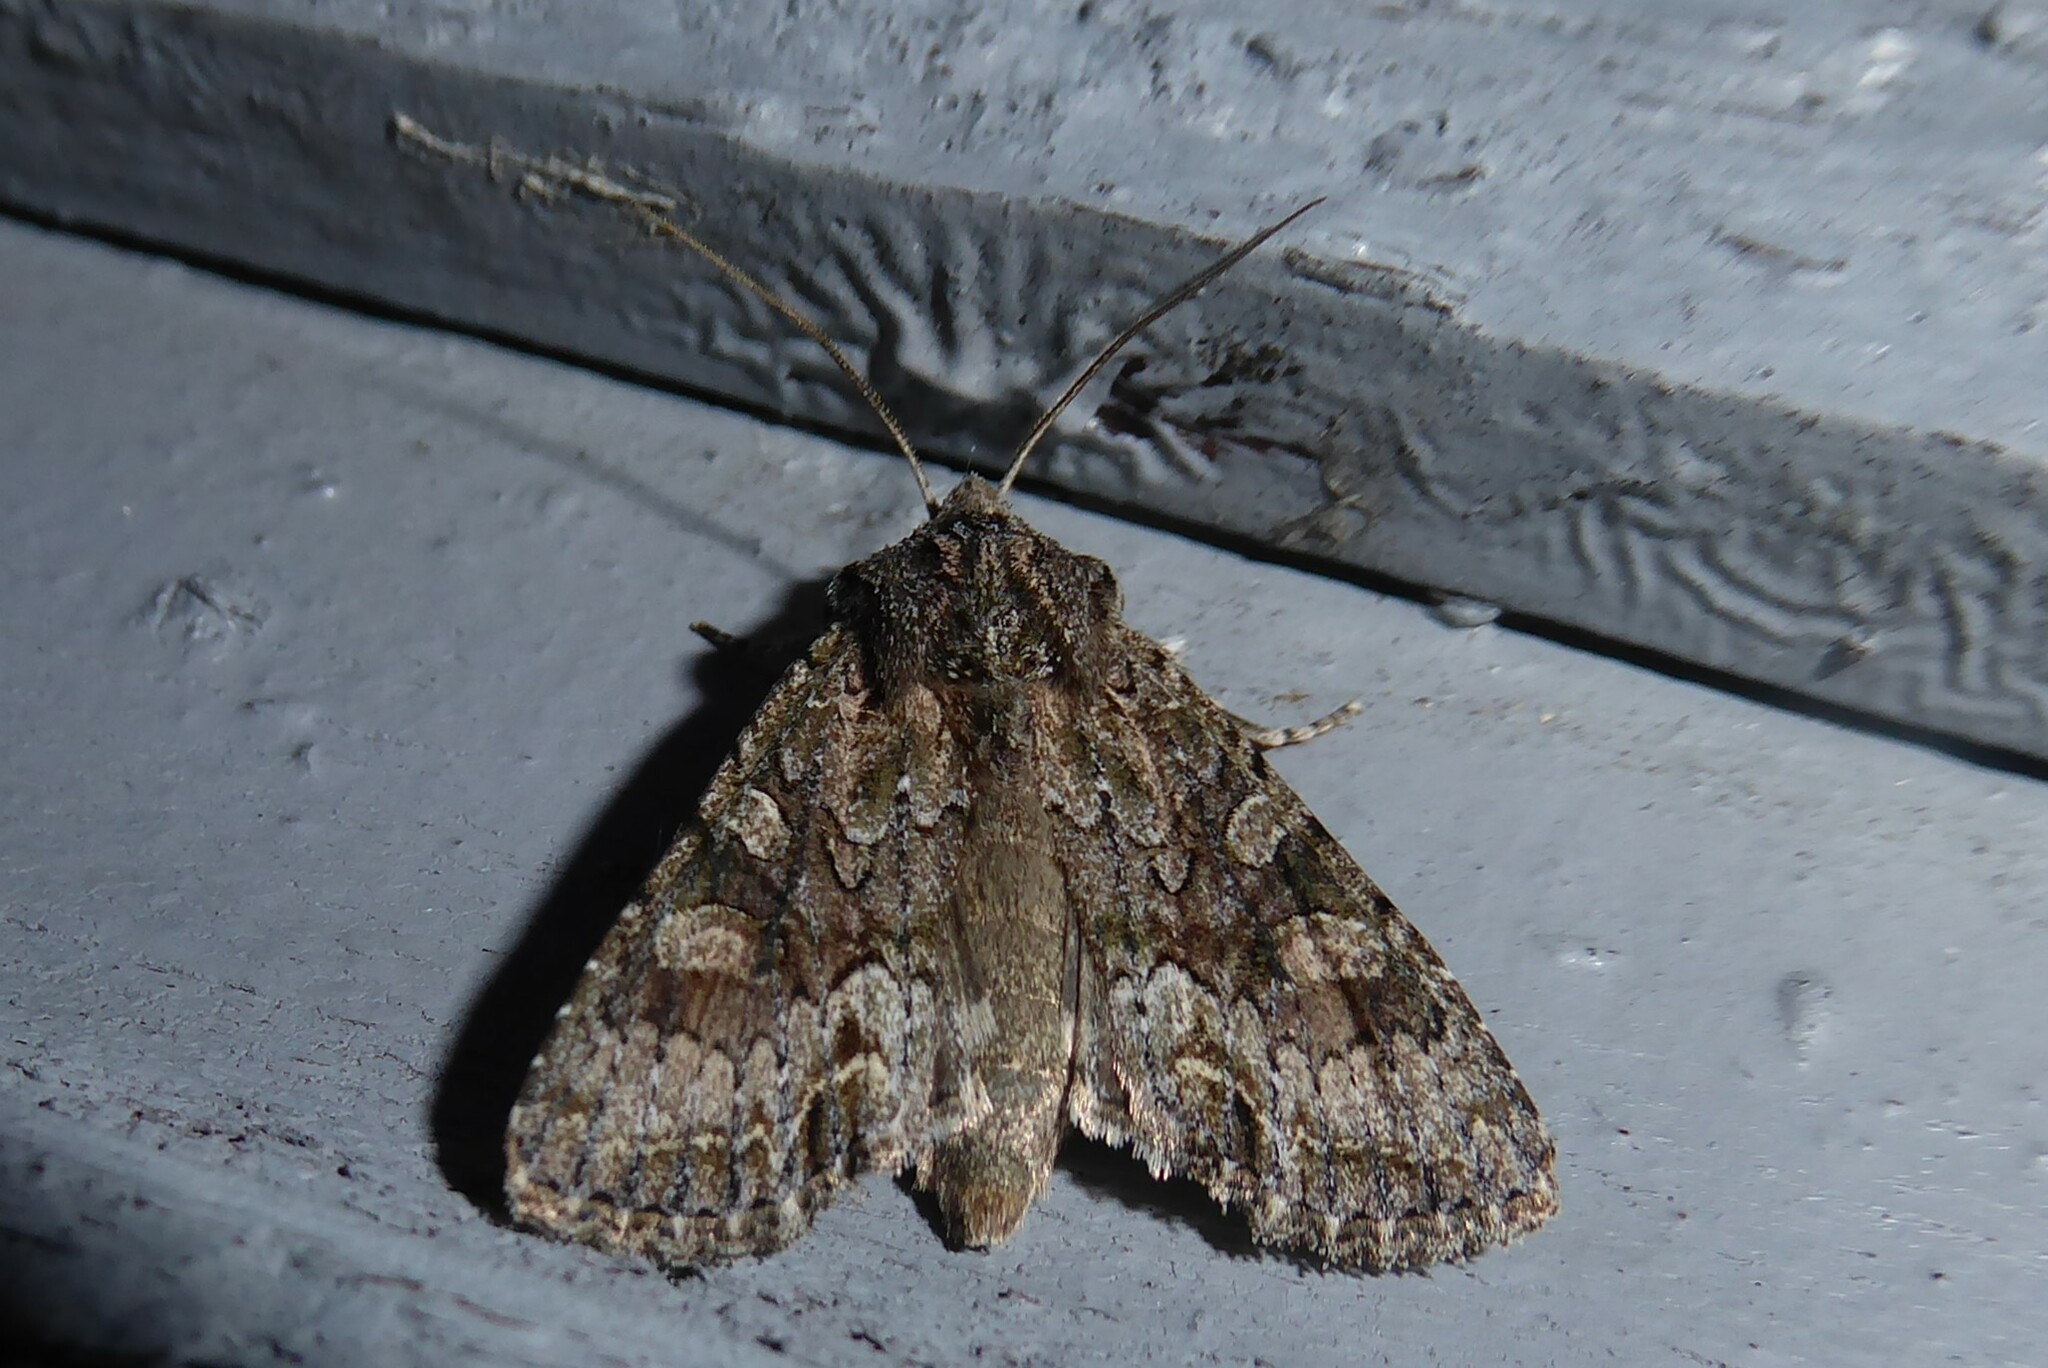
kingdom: Animalia
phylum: Arthropoda
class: Insecta
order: Lepidoptera
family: Noctuidae
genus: Ichneutica
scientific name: Ichneutica mutans
